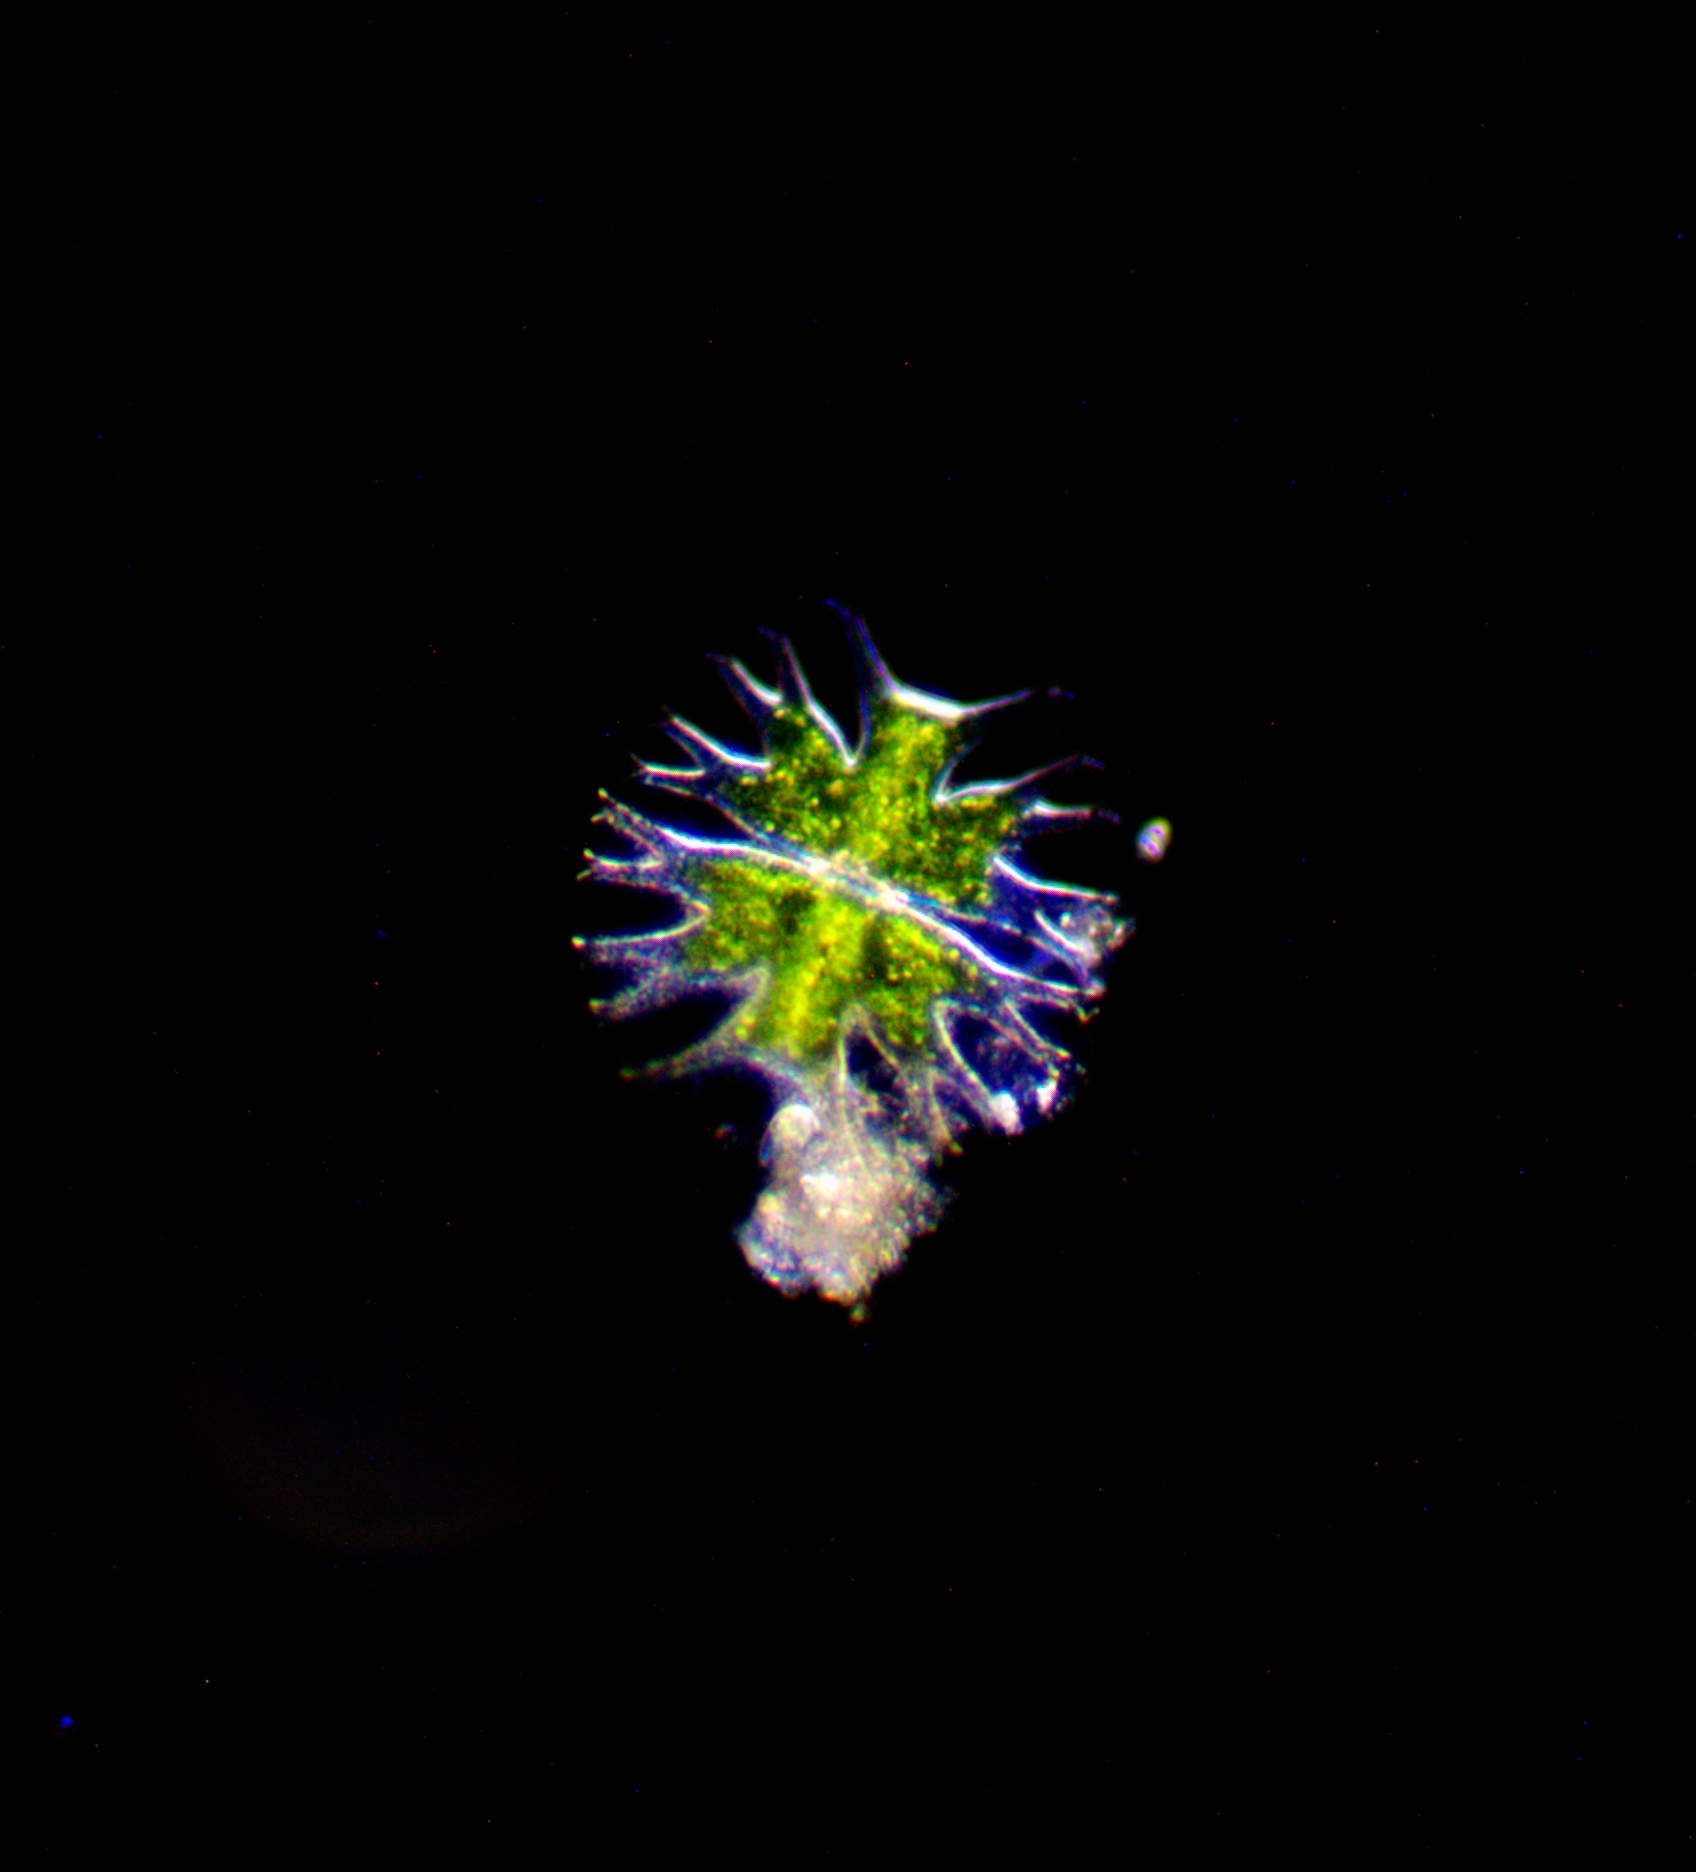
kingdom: Plantae
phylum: Charophyta
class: Conjugatophyceae
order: Desmidiales
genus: Micrasterias
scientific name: Micrasterias furcata
